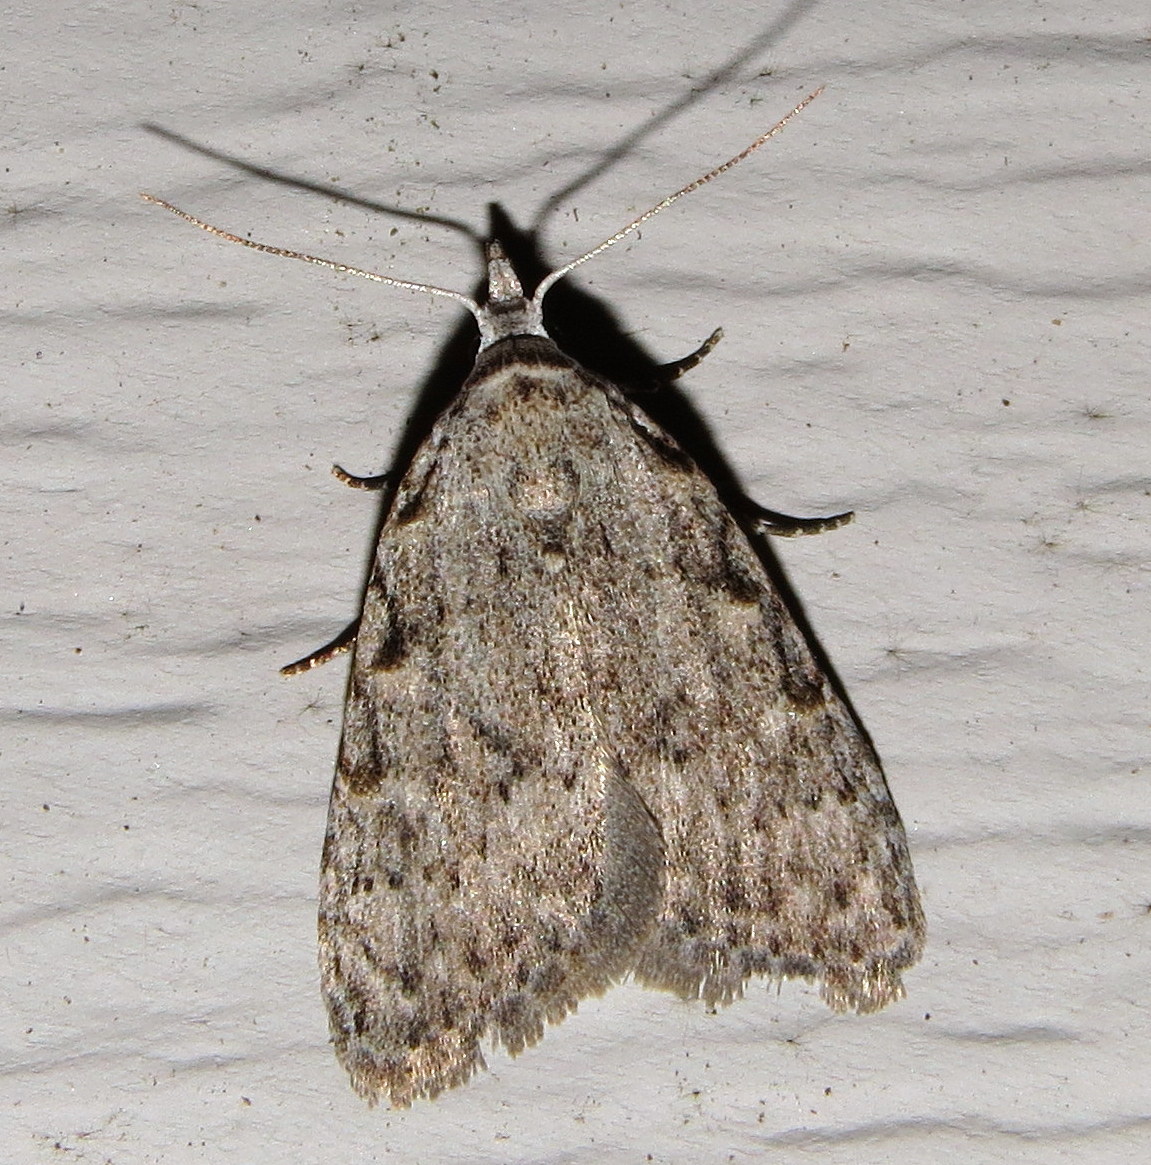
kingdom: Animalia
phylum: Arthropoda
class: Insecta
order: Lepidoptera
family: Nolidae
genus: Nola
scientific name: Nola clethrae
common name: Sweet pepperbush nola moth
